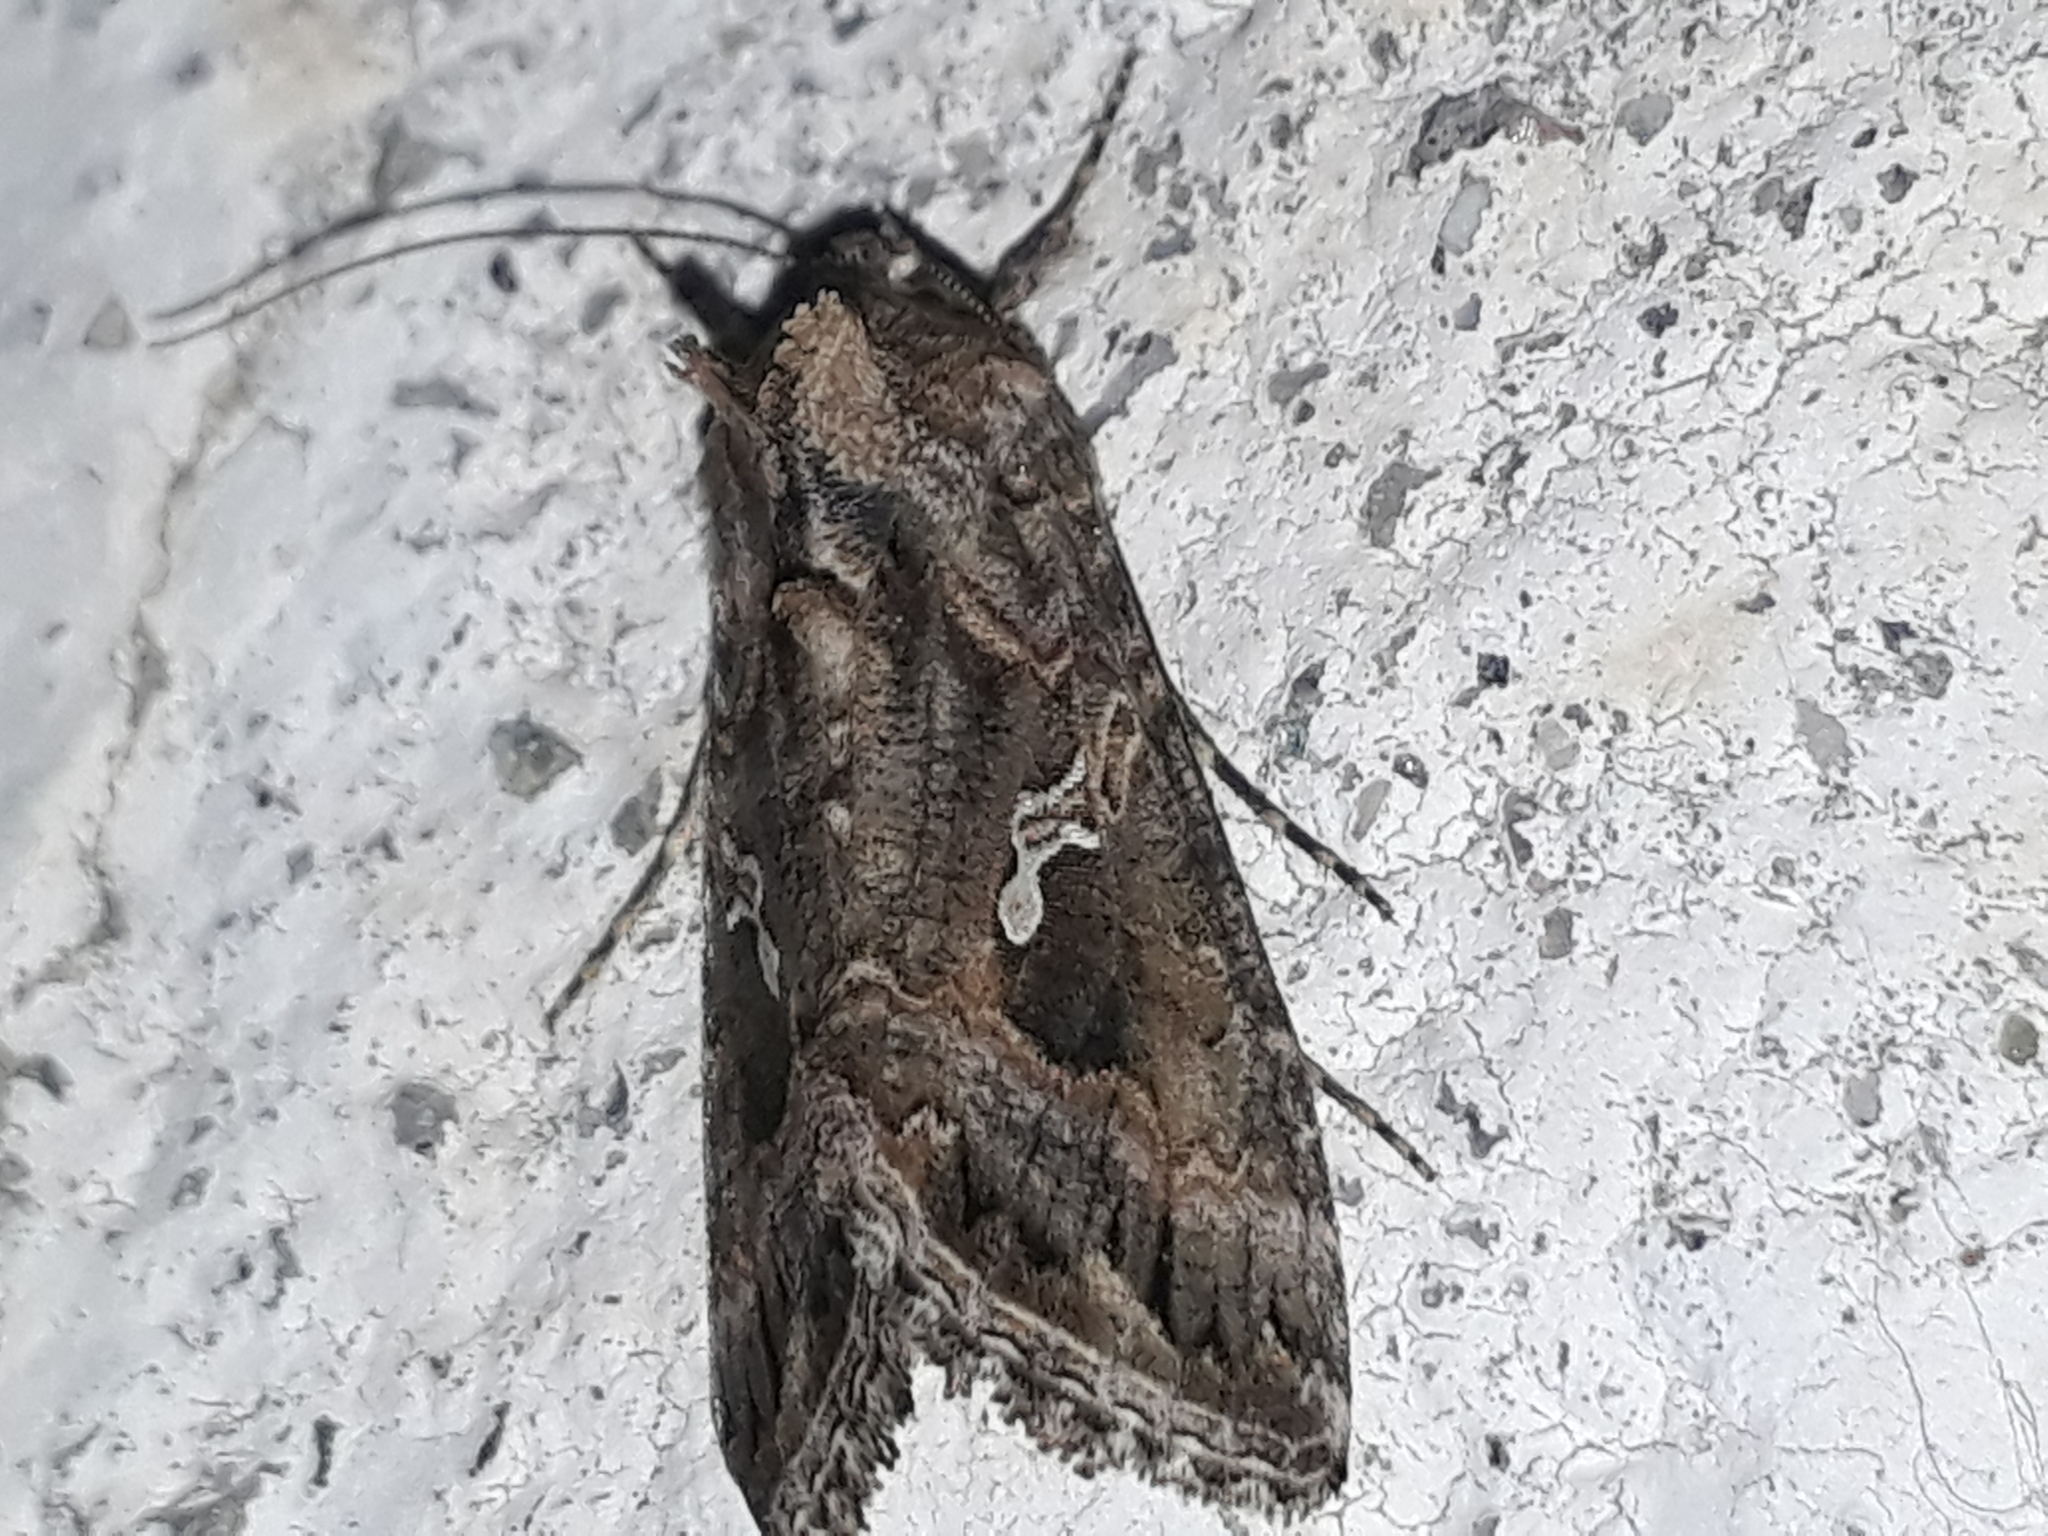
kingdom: Animalia
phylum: Arthropoda
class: Insecta
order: Lepidoptera
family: Noctuidae
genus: Trichoplusia
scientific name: Trichoplusia ni
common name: Ni moth
